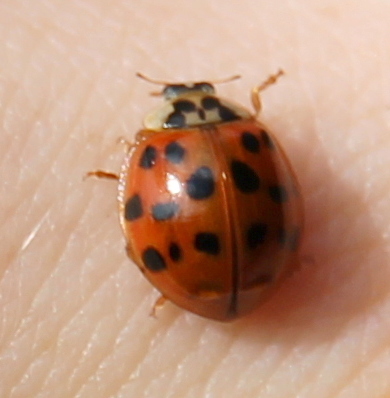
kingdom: Animalia
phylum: Arthropoda
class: Insecta
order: Coleoptera
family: Coccinellidae
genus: Harmonia
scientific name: Harmonia axyridis
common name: Harlequin ladybird
